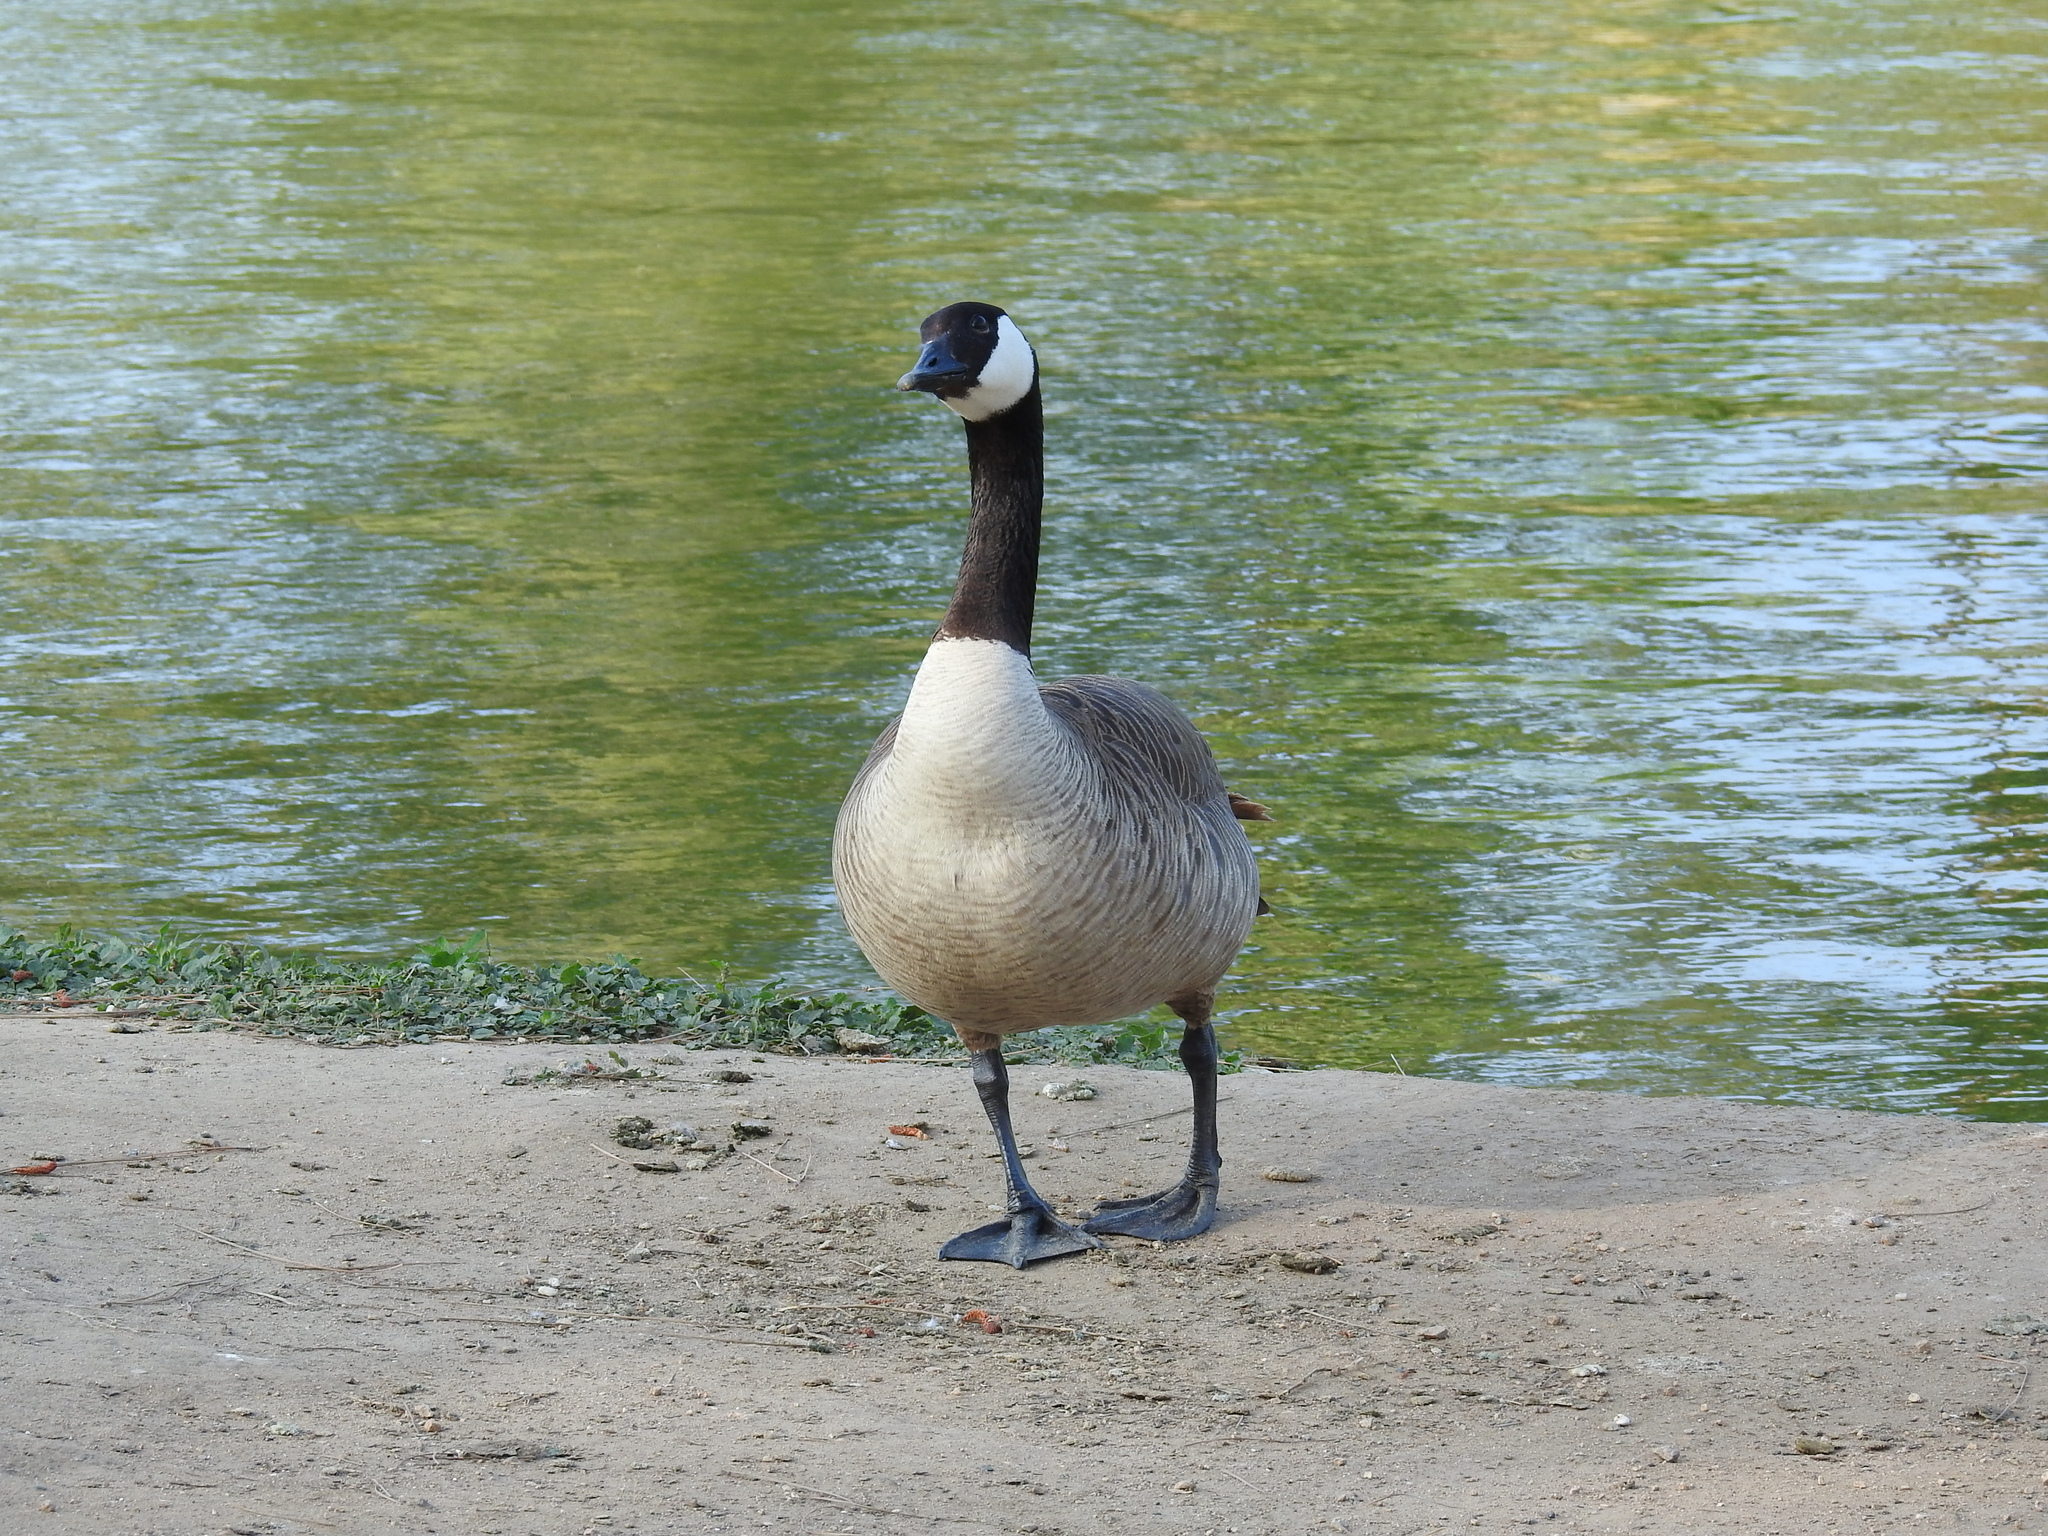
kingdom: Animalia
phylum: Chordata
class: Aves
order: Anseriformes
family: Anatidae
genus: Branta
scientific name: Branta canadensis
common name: Canada goose
